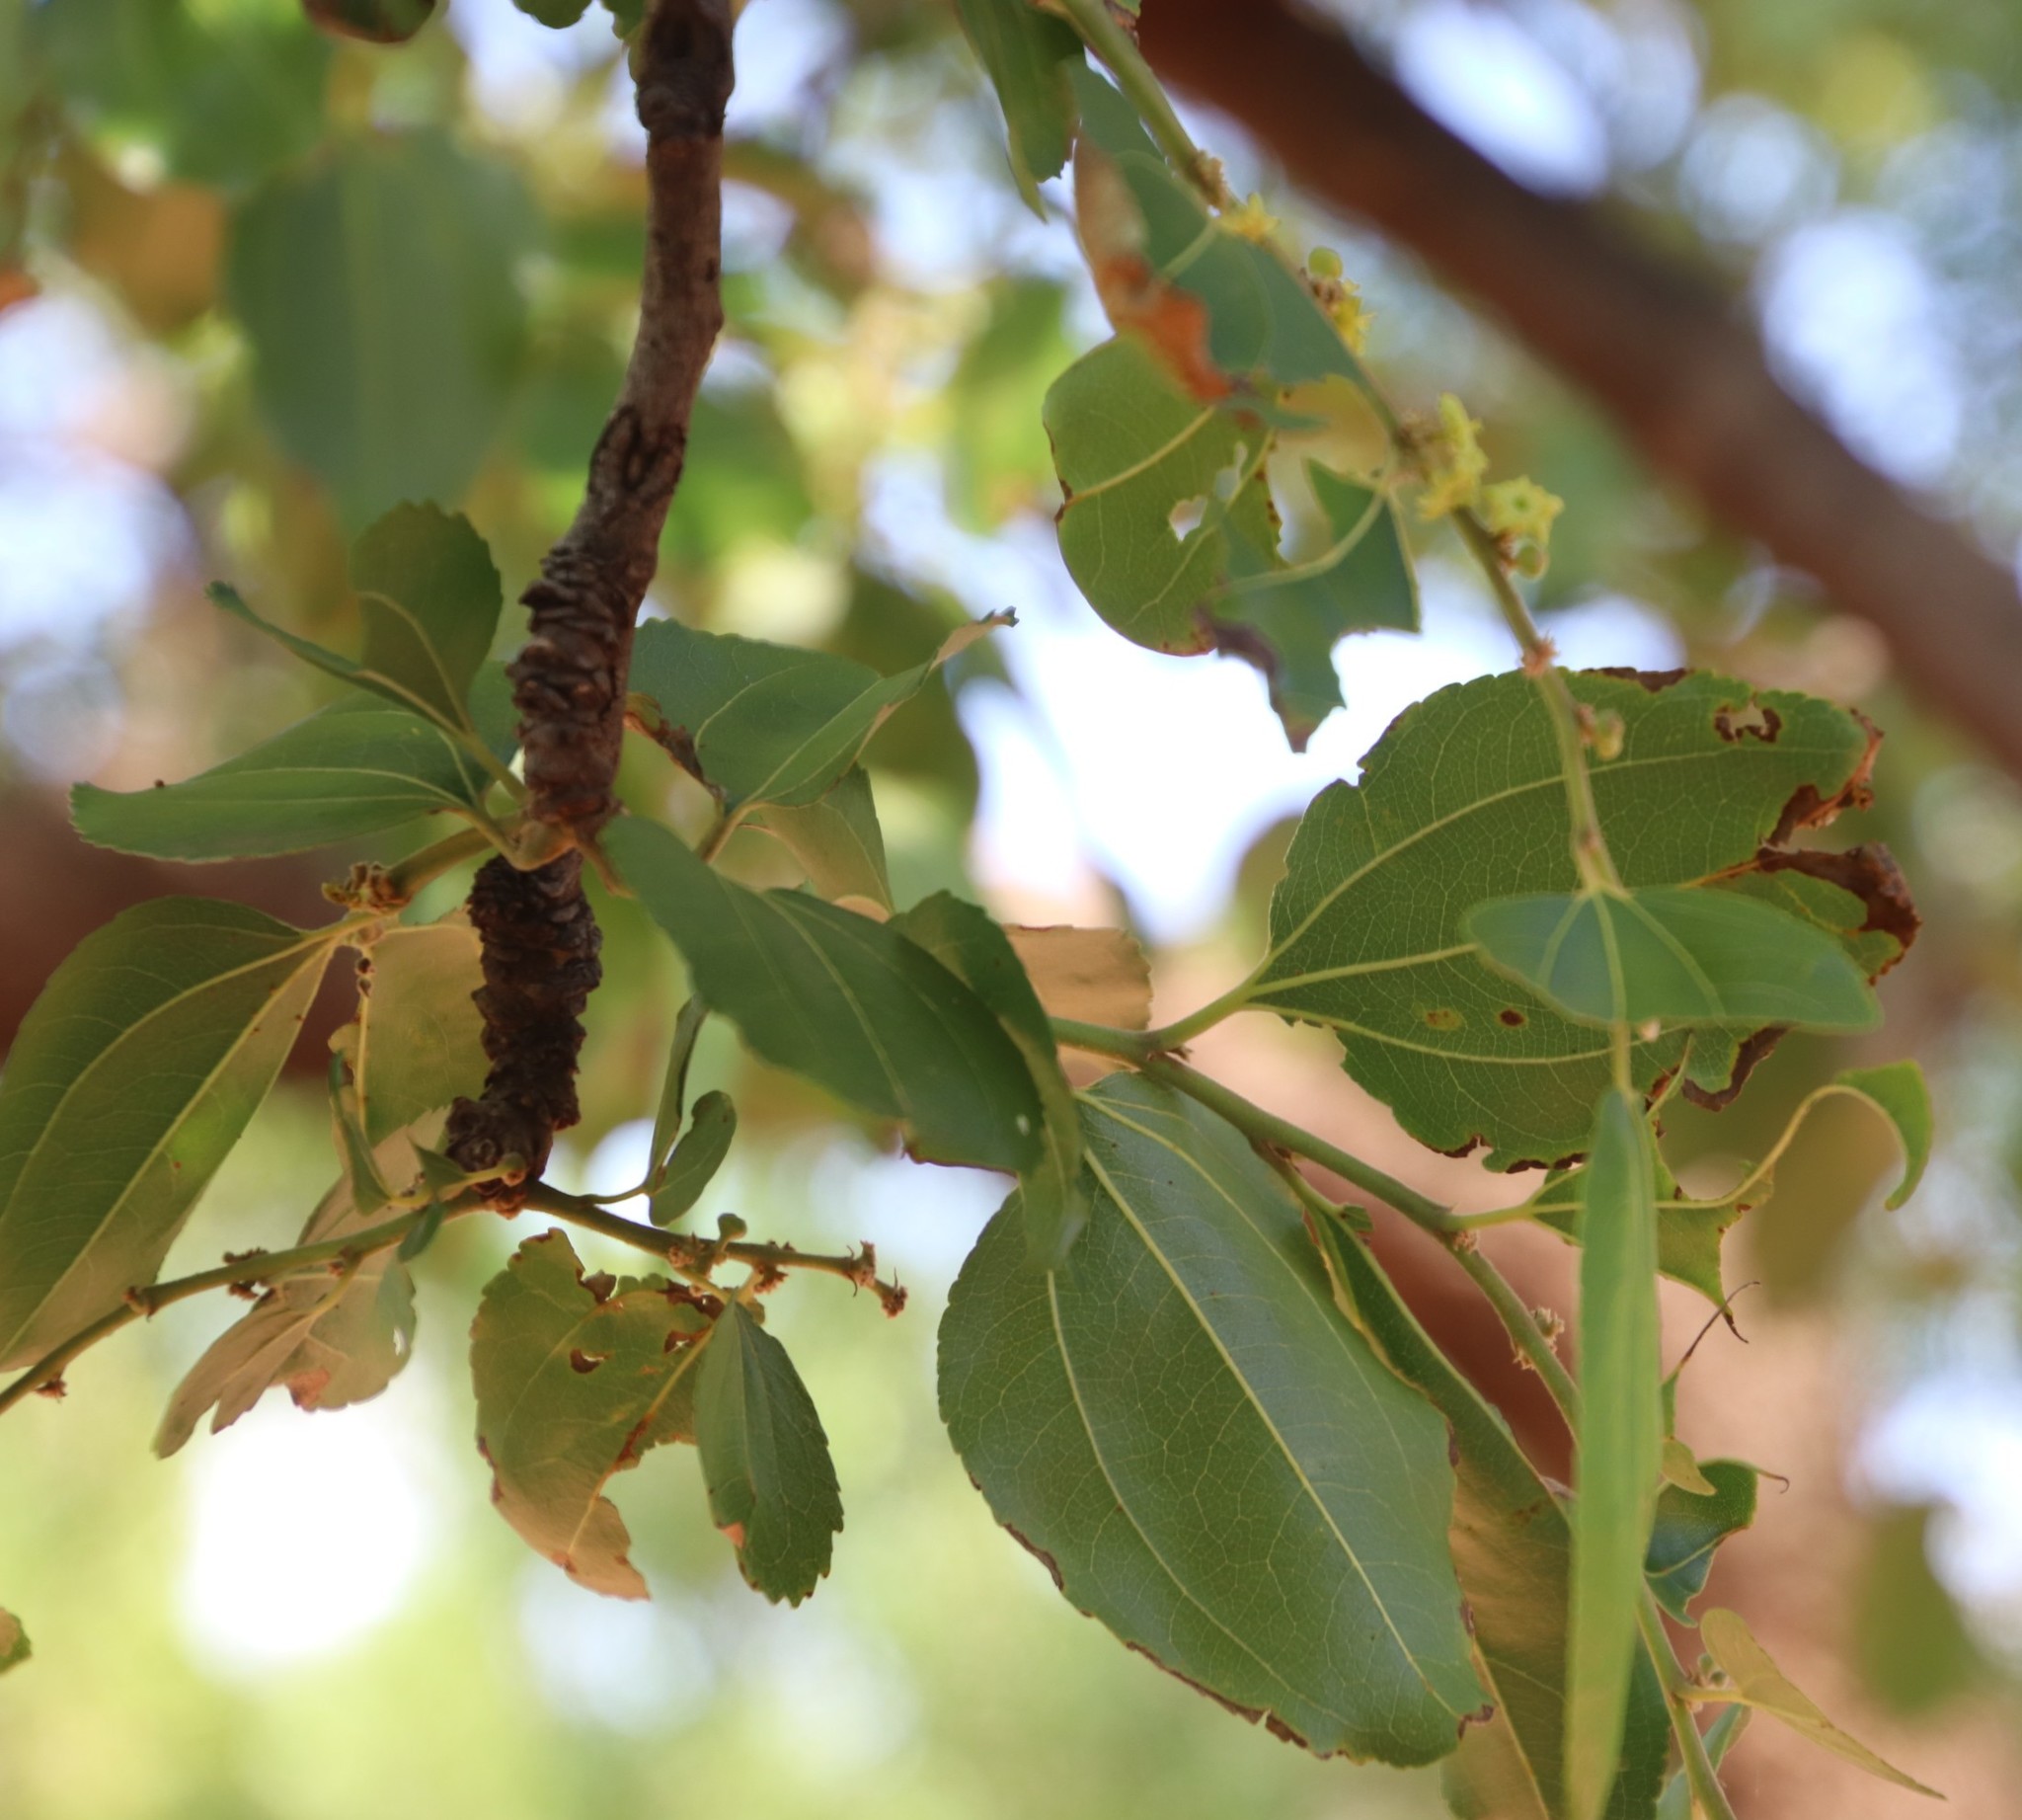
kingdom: Plantae
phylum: Tracheophyta
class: Magnoliopsida
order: Rosales
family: Rhamnaceae
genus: Ziziphus
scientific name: Ziziphus mucronata
